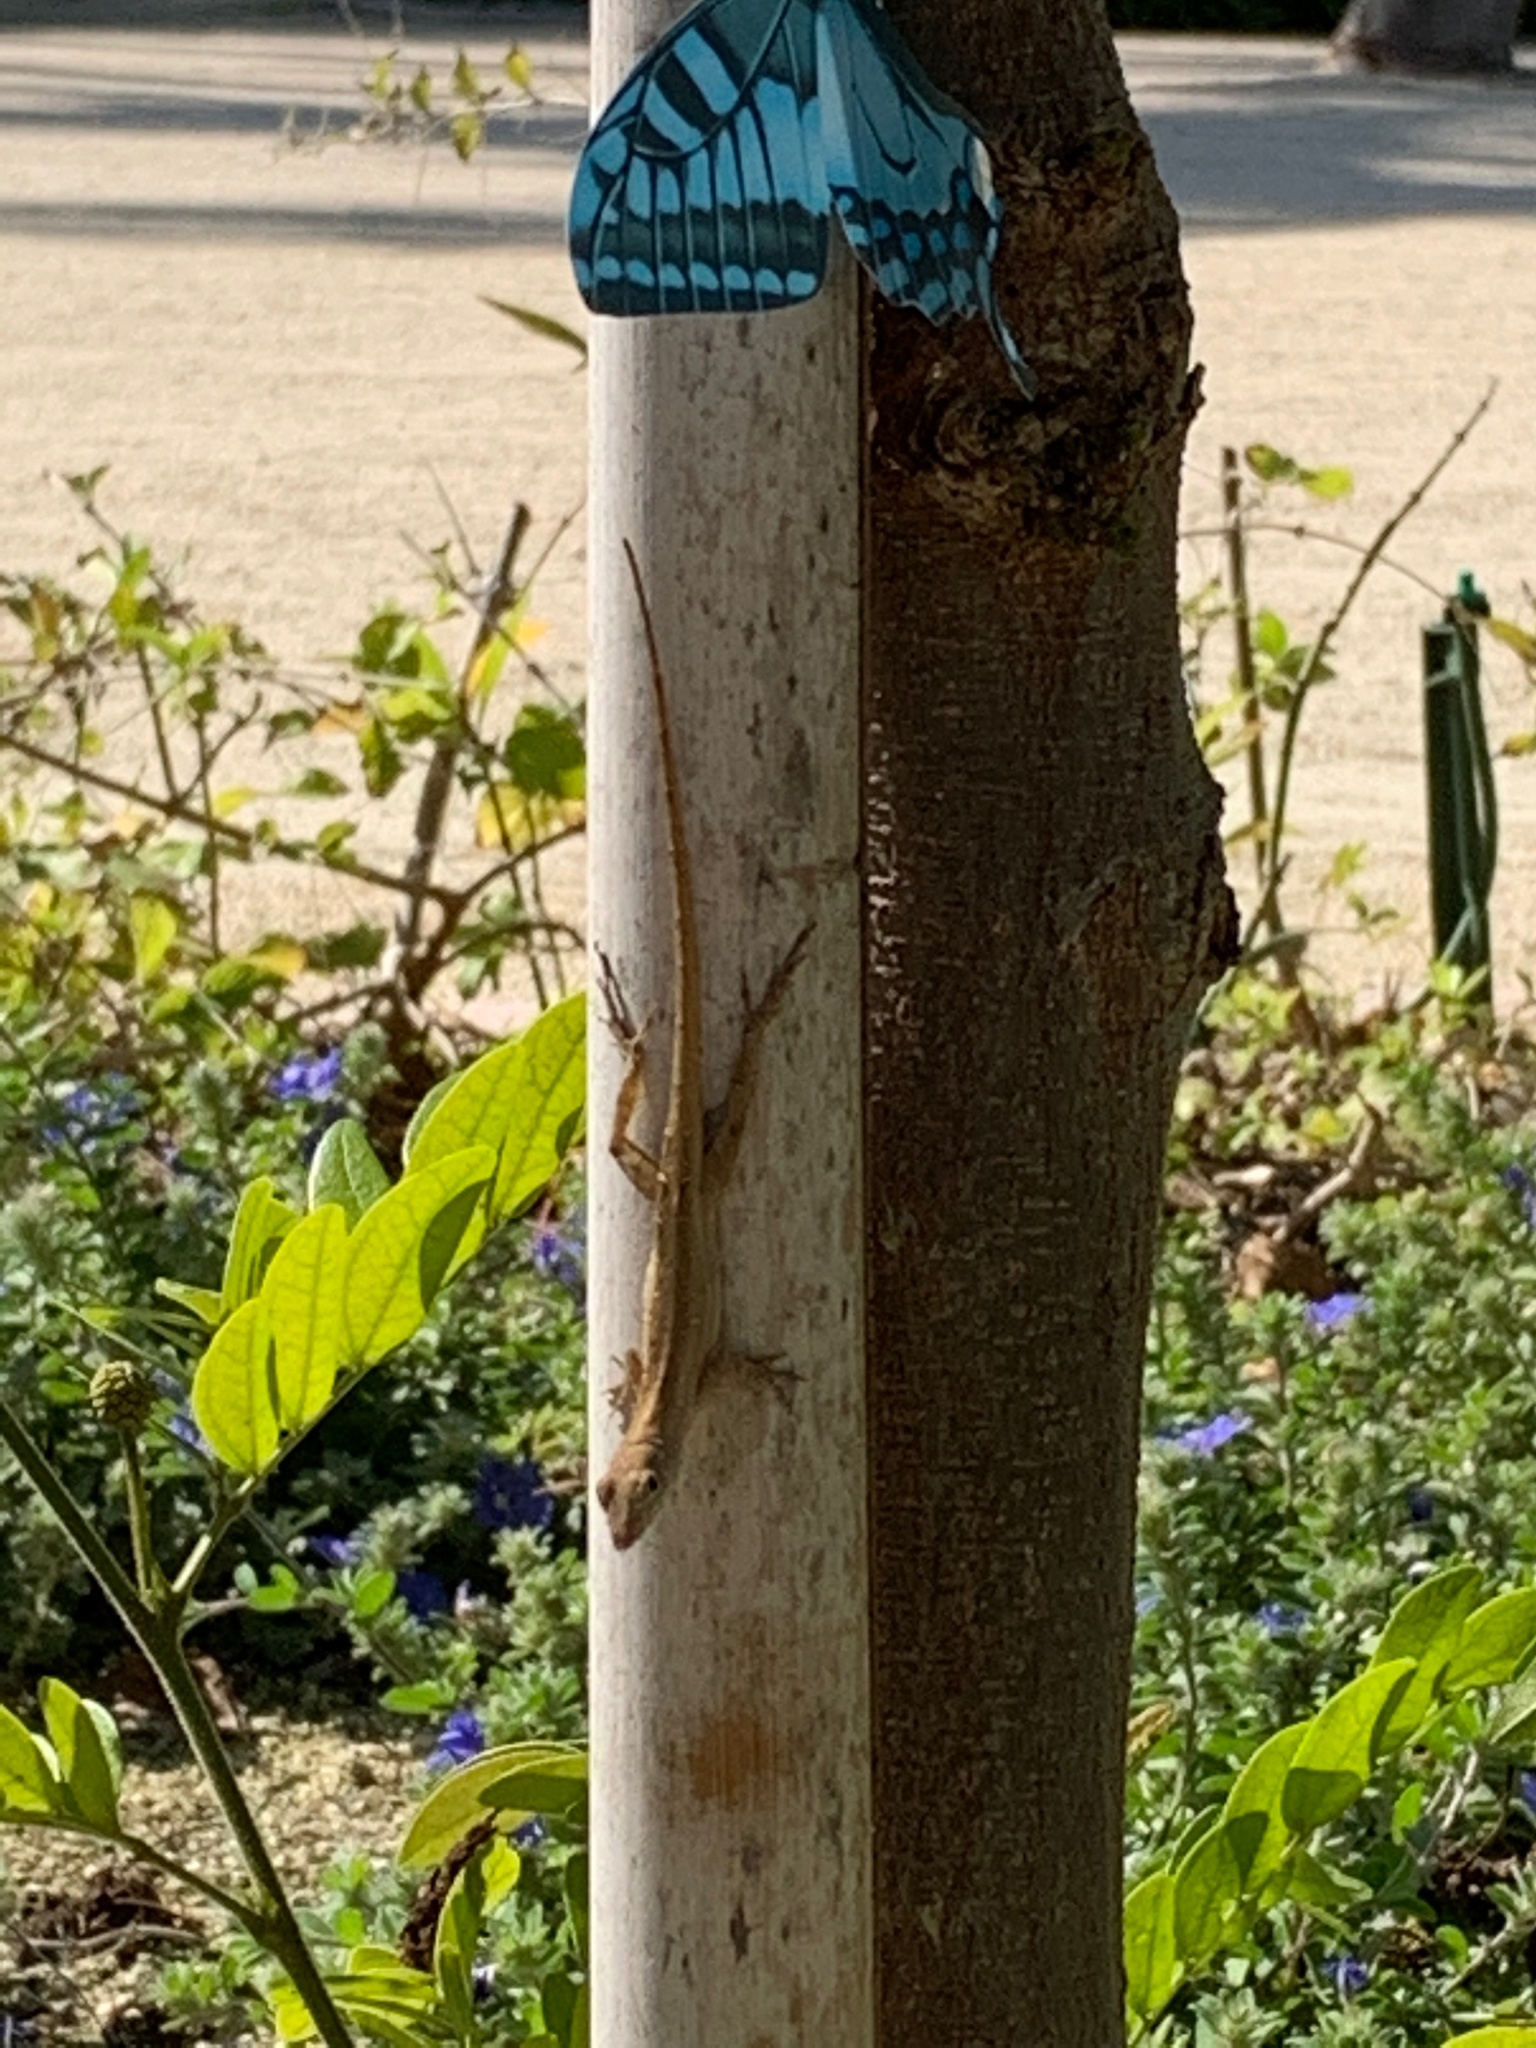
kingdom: Animalia
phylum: Chordata
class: Squamata
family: Dactyloidae
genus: Anolis
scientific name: Anolis sagrei
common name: Brown anole
